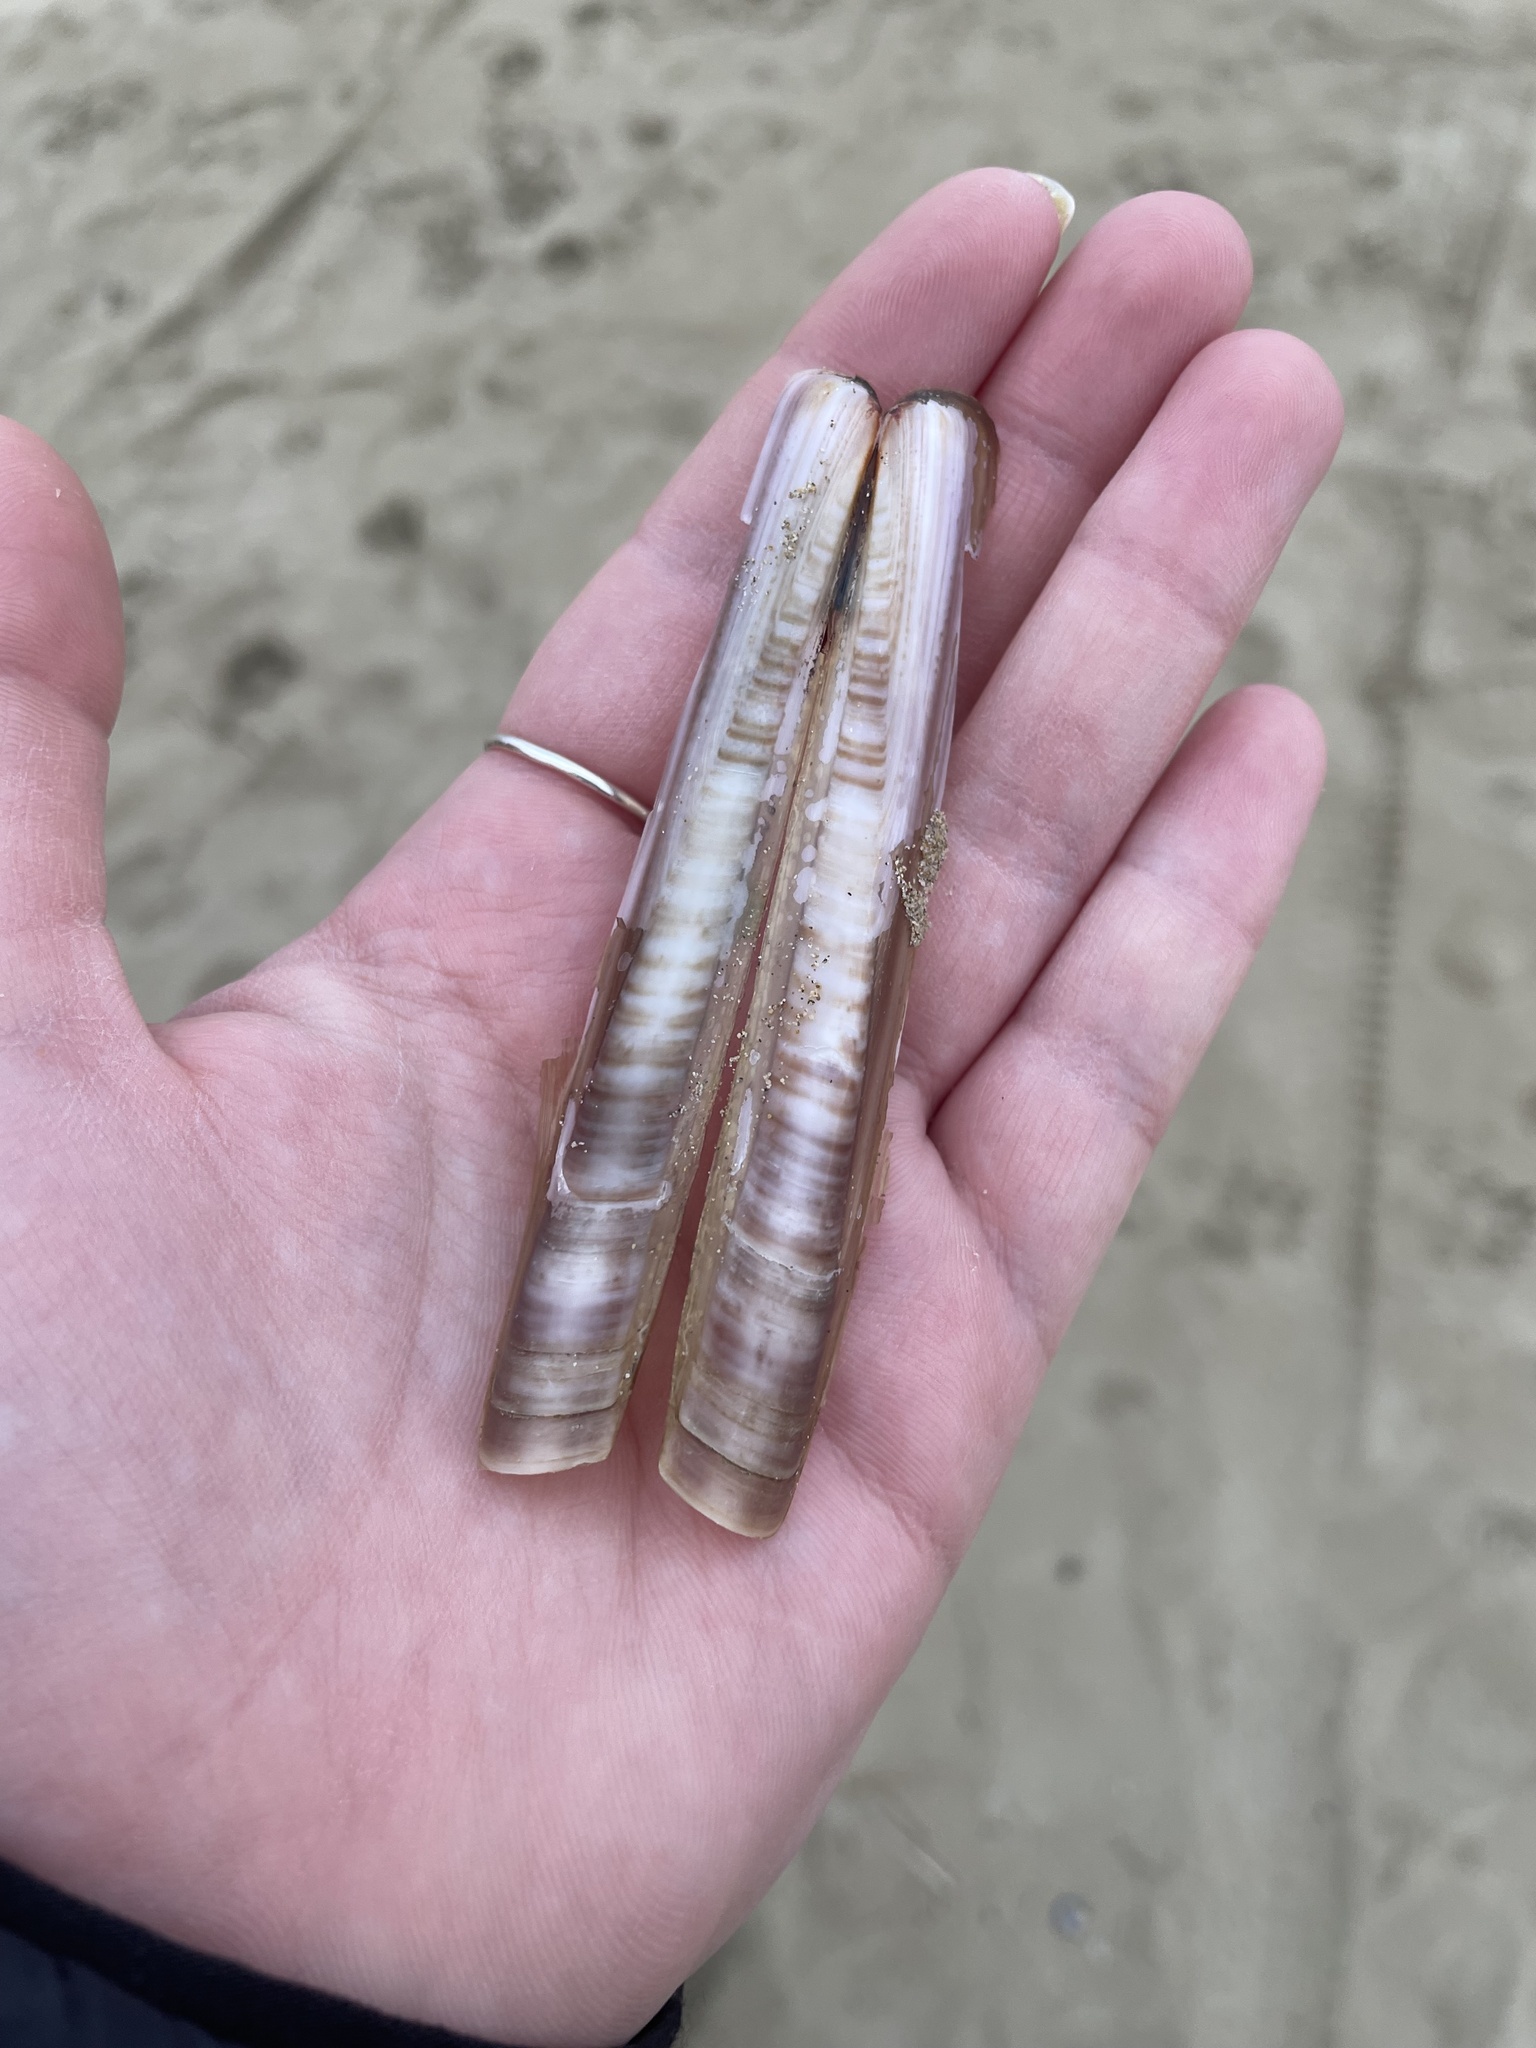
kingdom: Animalia
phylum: Mollusca
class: Bivalvia
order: Adapedonta
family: Pharidae
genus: Ensis
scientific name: Ensis minor
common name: Minor jackknife clam
